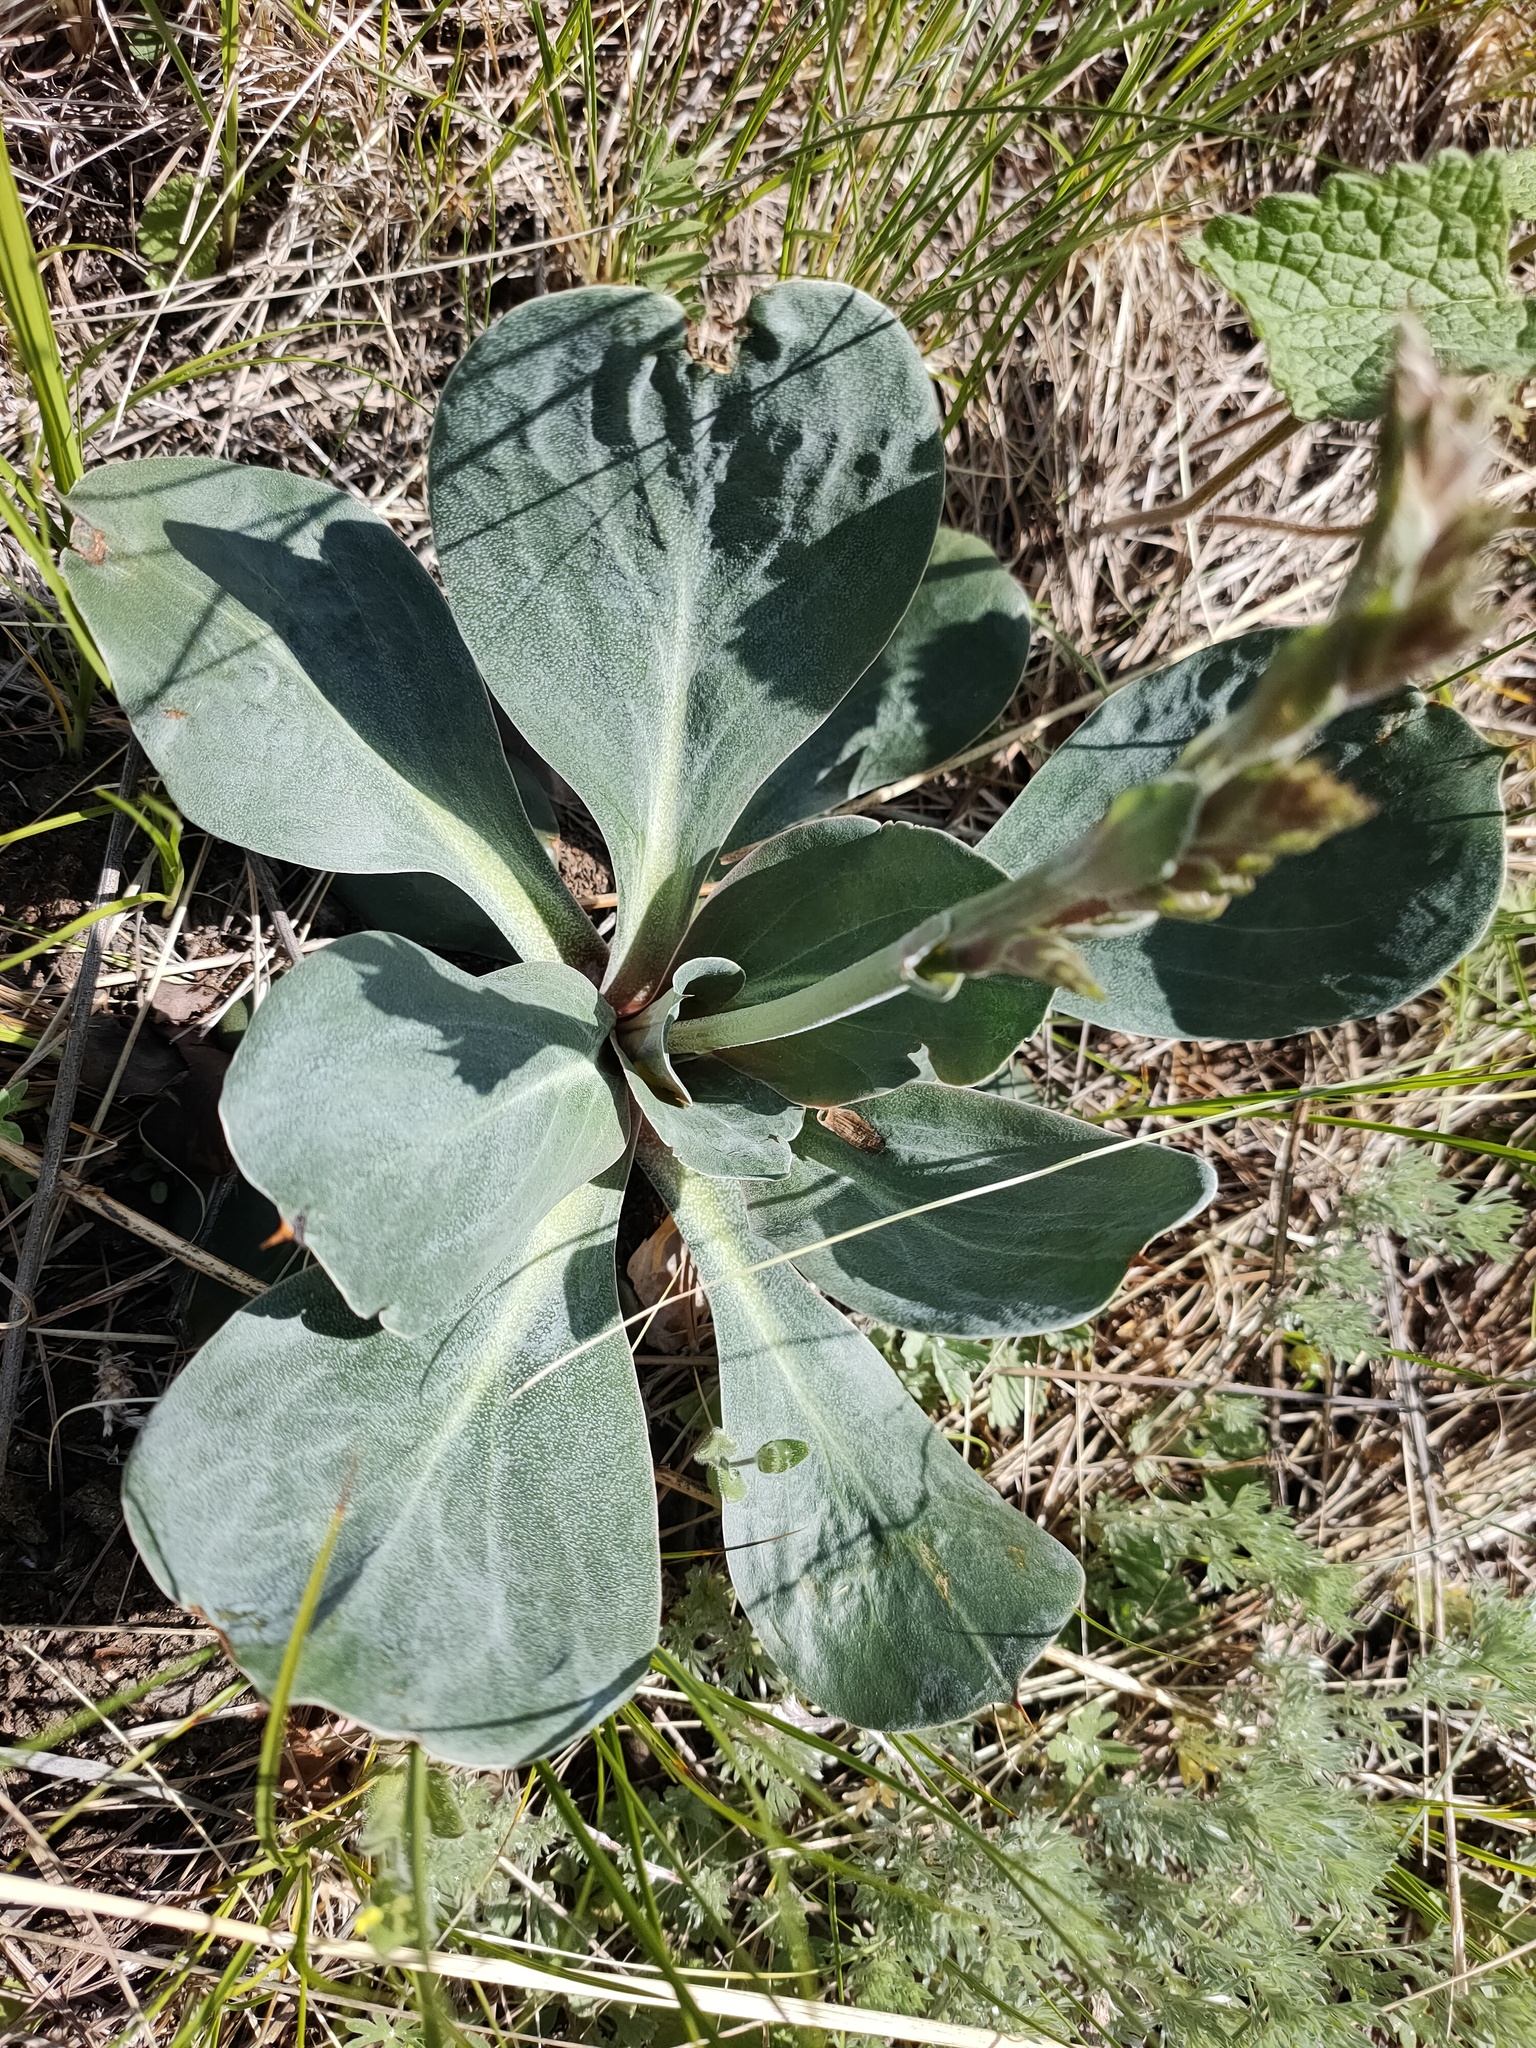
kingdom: Plantae
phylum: Tracheophyta
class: Magnoliopsida
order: Caryophyllales
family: Plumbaginaceae
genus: Goniolimon
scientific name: Goniolimon speciosum
